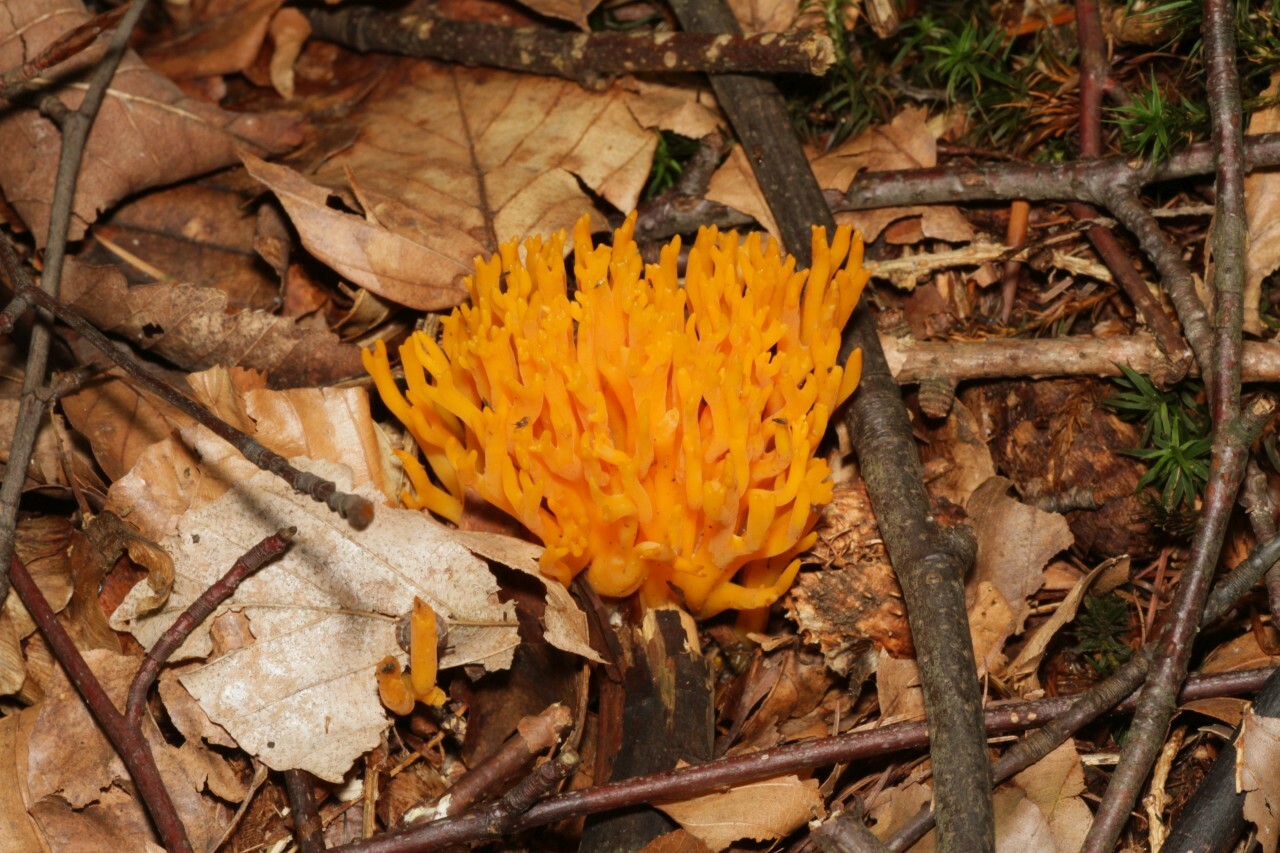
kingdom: Fungi
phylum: Basidiomycota
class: Dacrymycetes
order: Dacrymycetales
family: Dacrymycetaceae
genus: Calocera
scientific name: Calocera viscosa
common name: Yellow stagshorn
